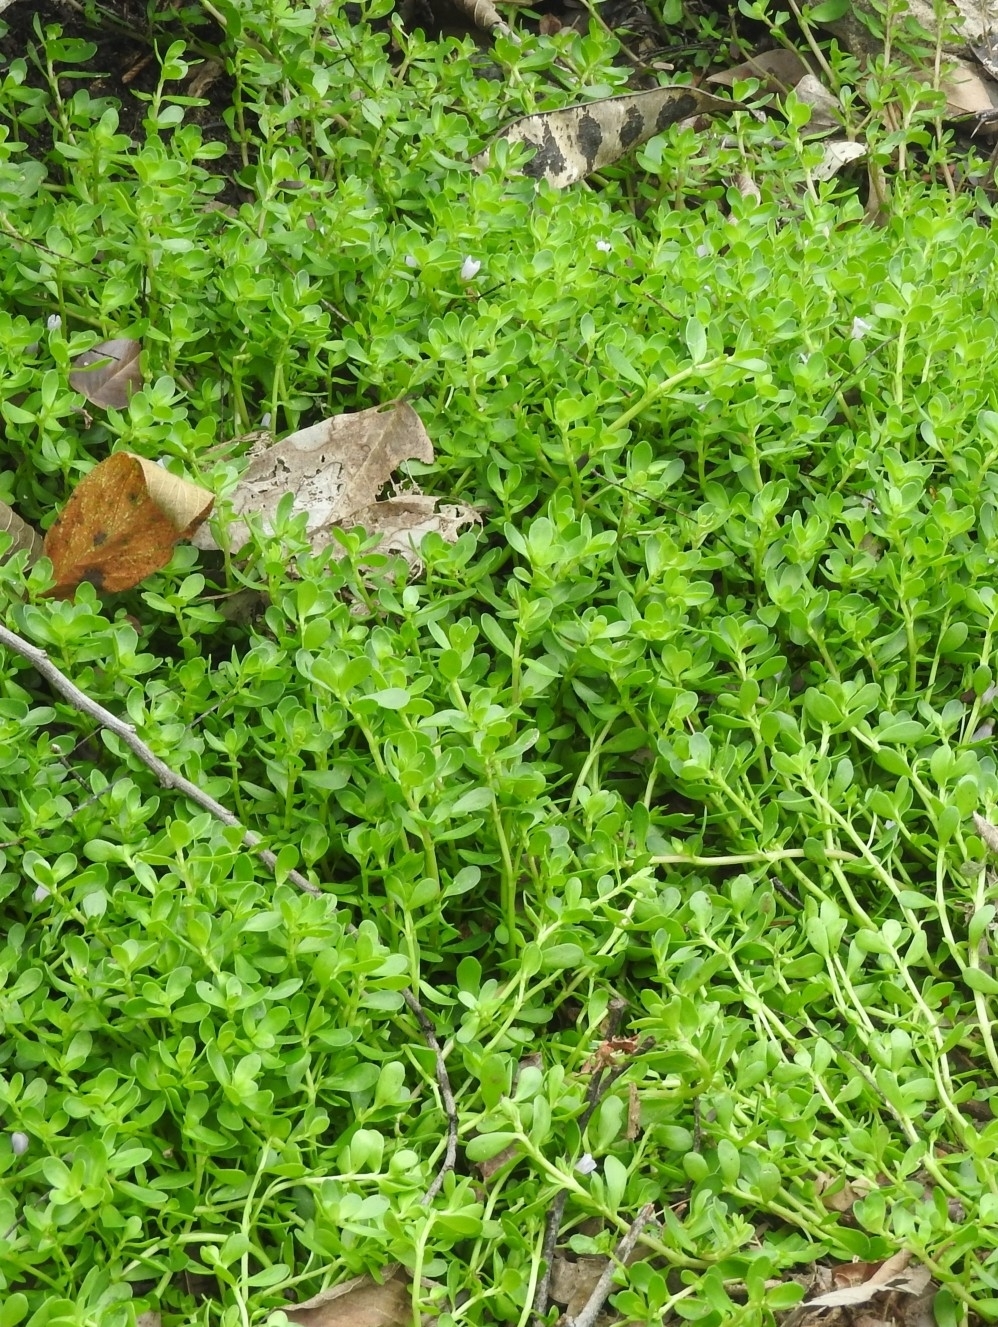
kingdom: Plantae
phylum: Tracheophyta
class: Magnoliopsida
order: Lamiales
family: Plantaginaceae
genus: Bacopa
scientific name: Bacopa monnieri
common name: Indian-pennywort
